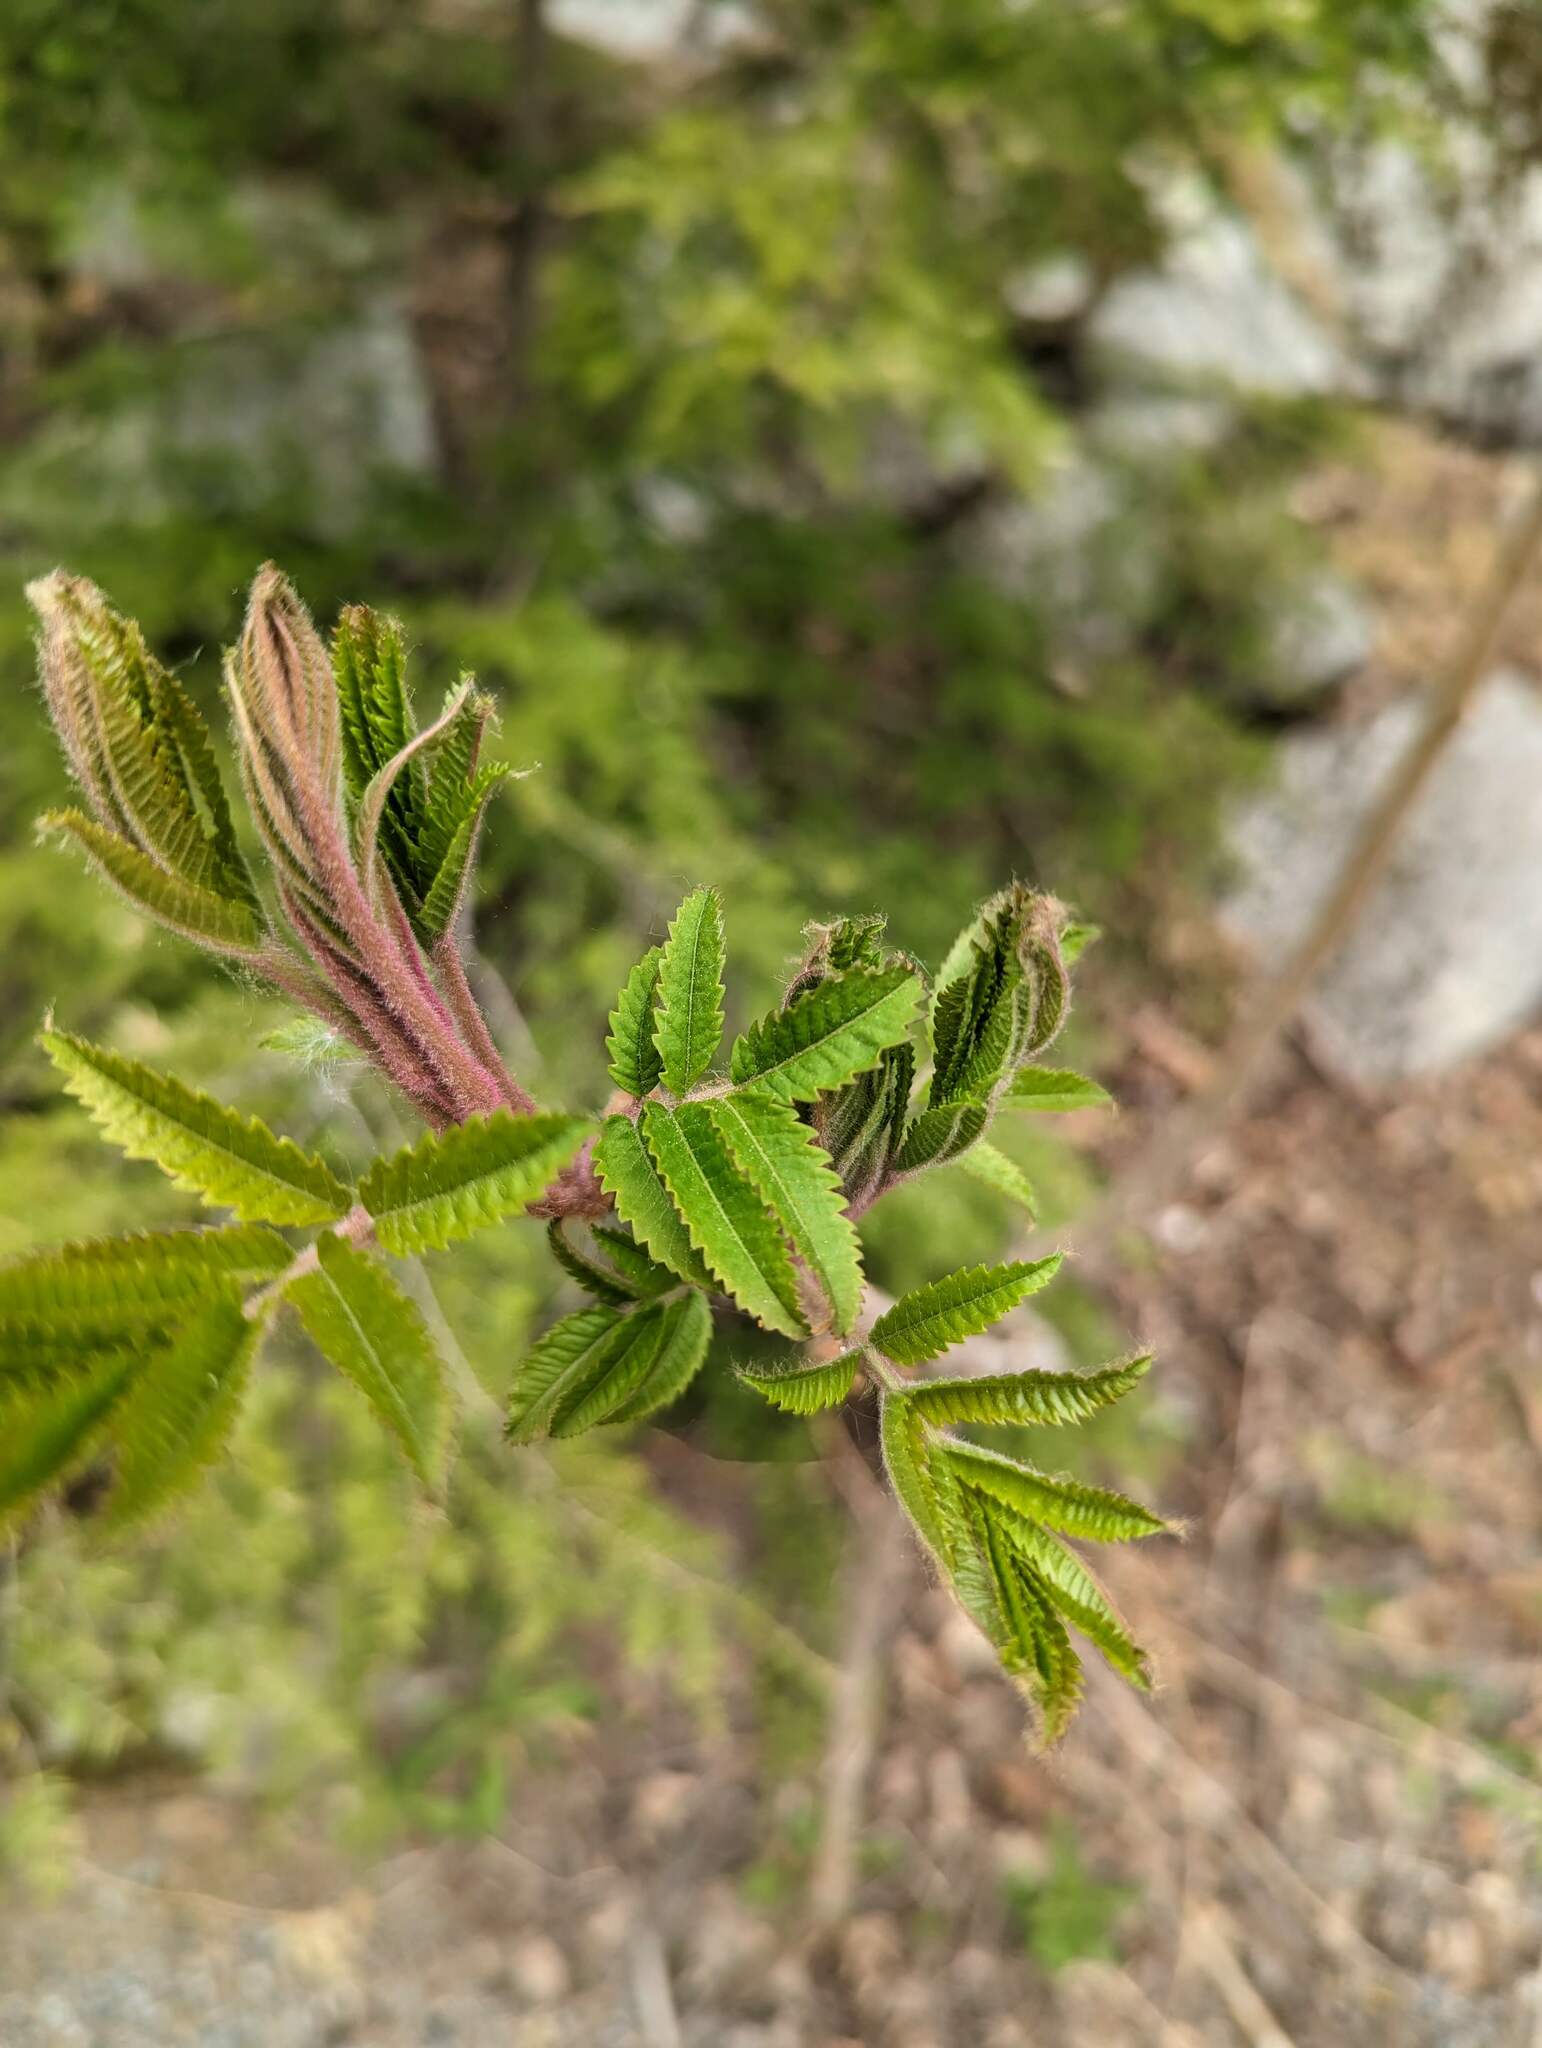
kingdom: Plantae
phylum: Tracheophyta
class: Magnoliopsida
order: Sapindales
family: Anacardiaceae
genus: Rhus
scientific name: Rhus typhina
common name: Staghorn sumac
